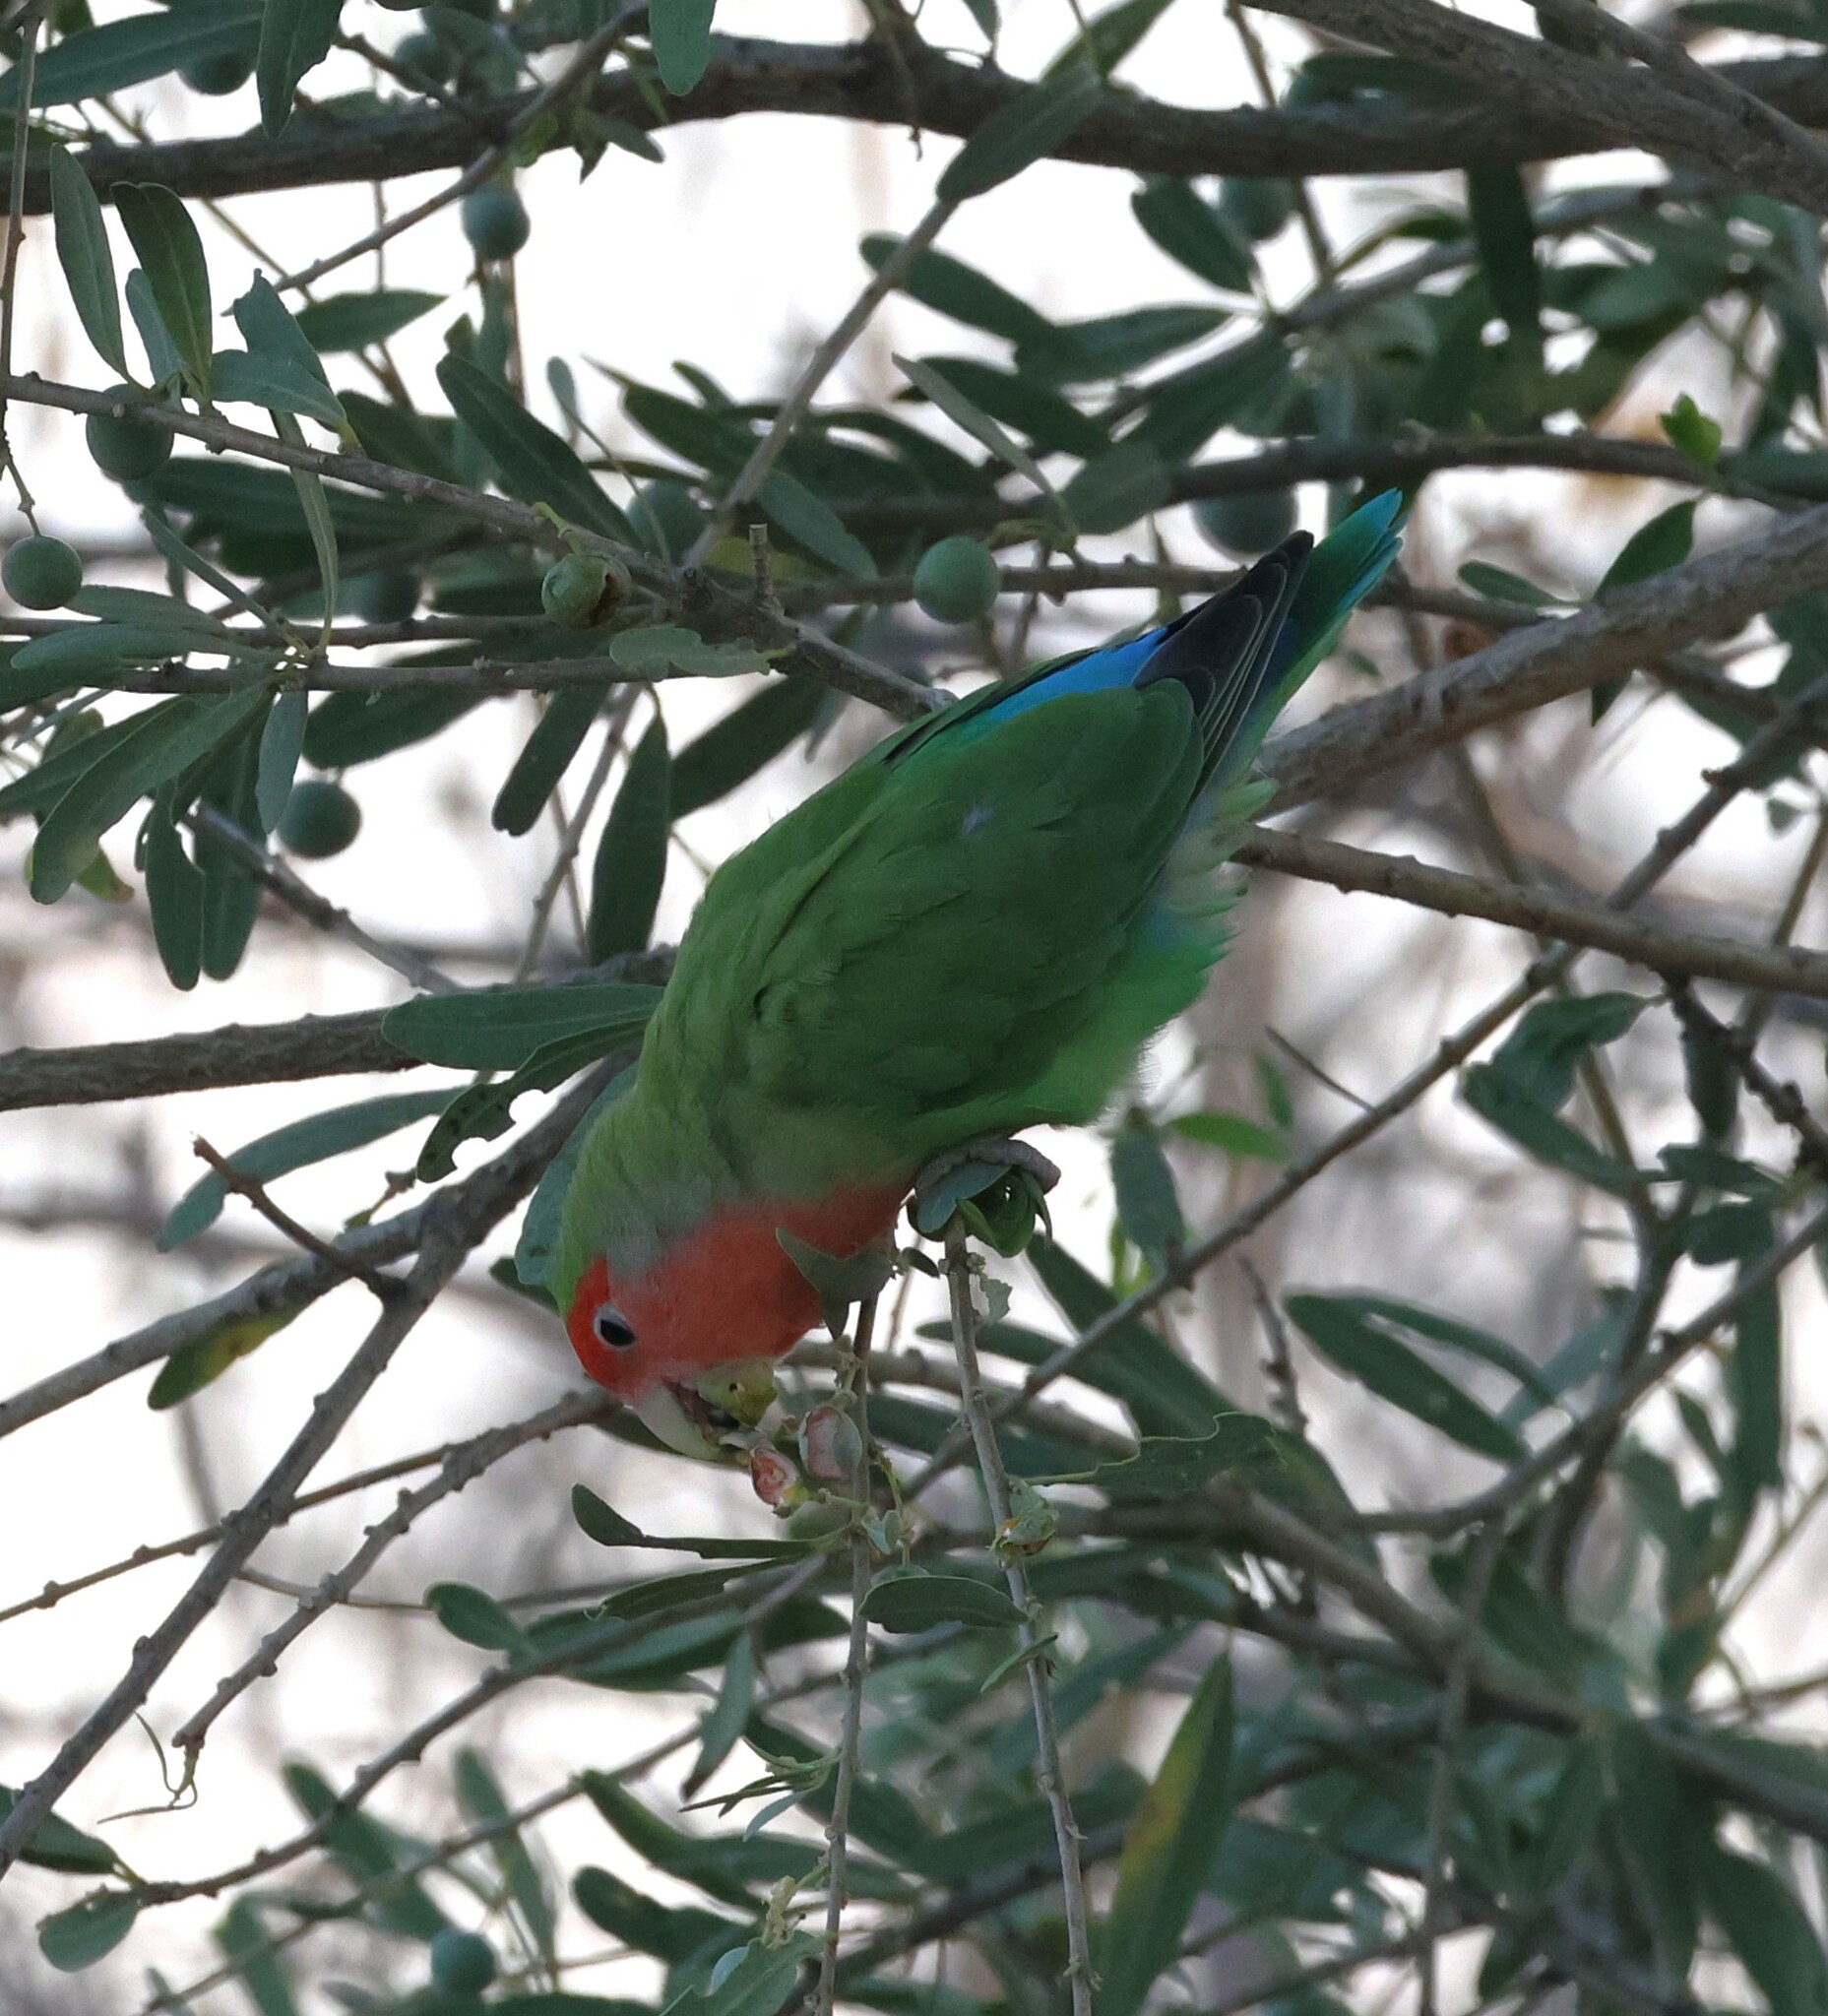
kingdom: Animalia
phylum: Chordata
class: Aves
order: Psittaciformes
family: Psittacidae
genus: Agapornis
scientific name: Agapornis roseicollis
